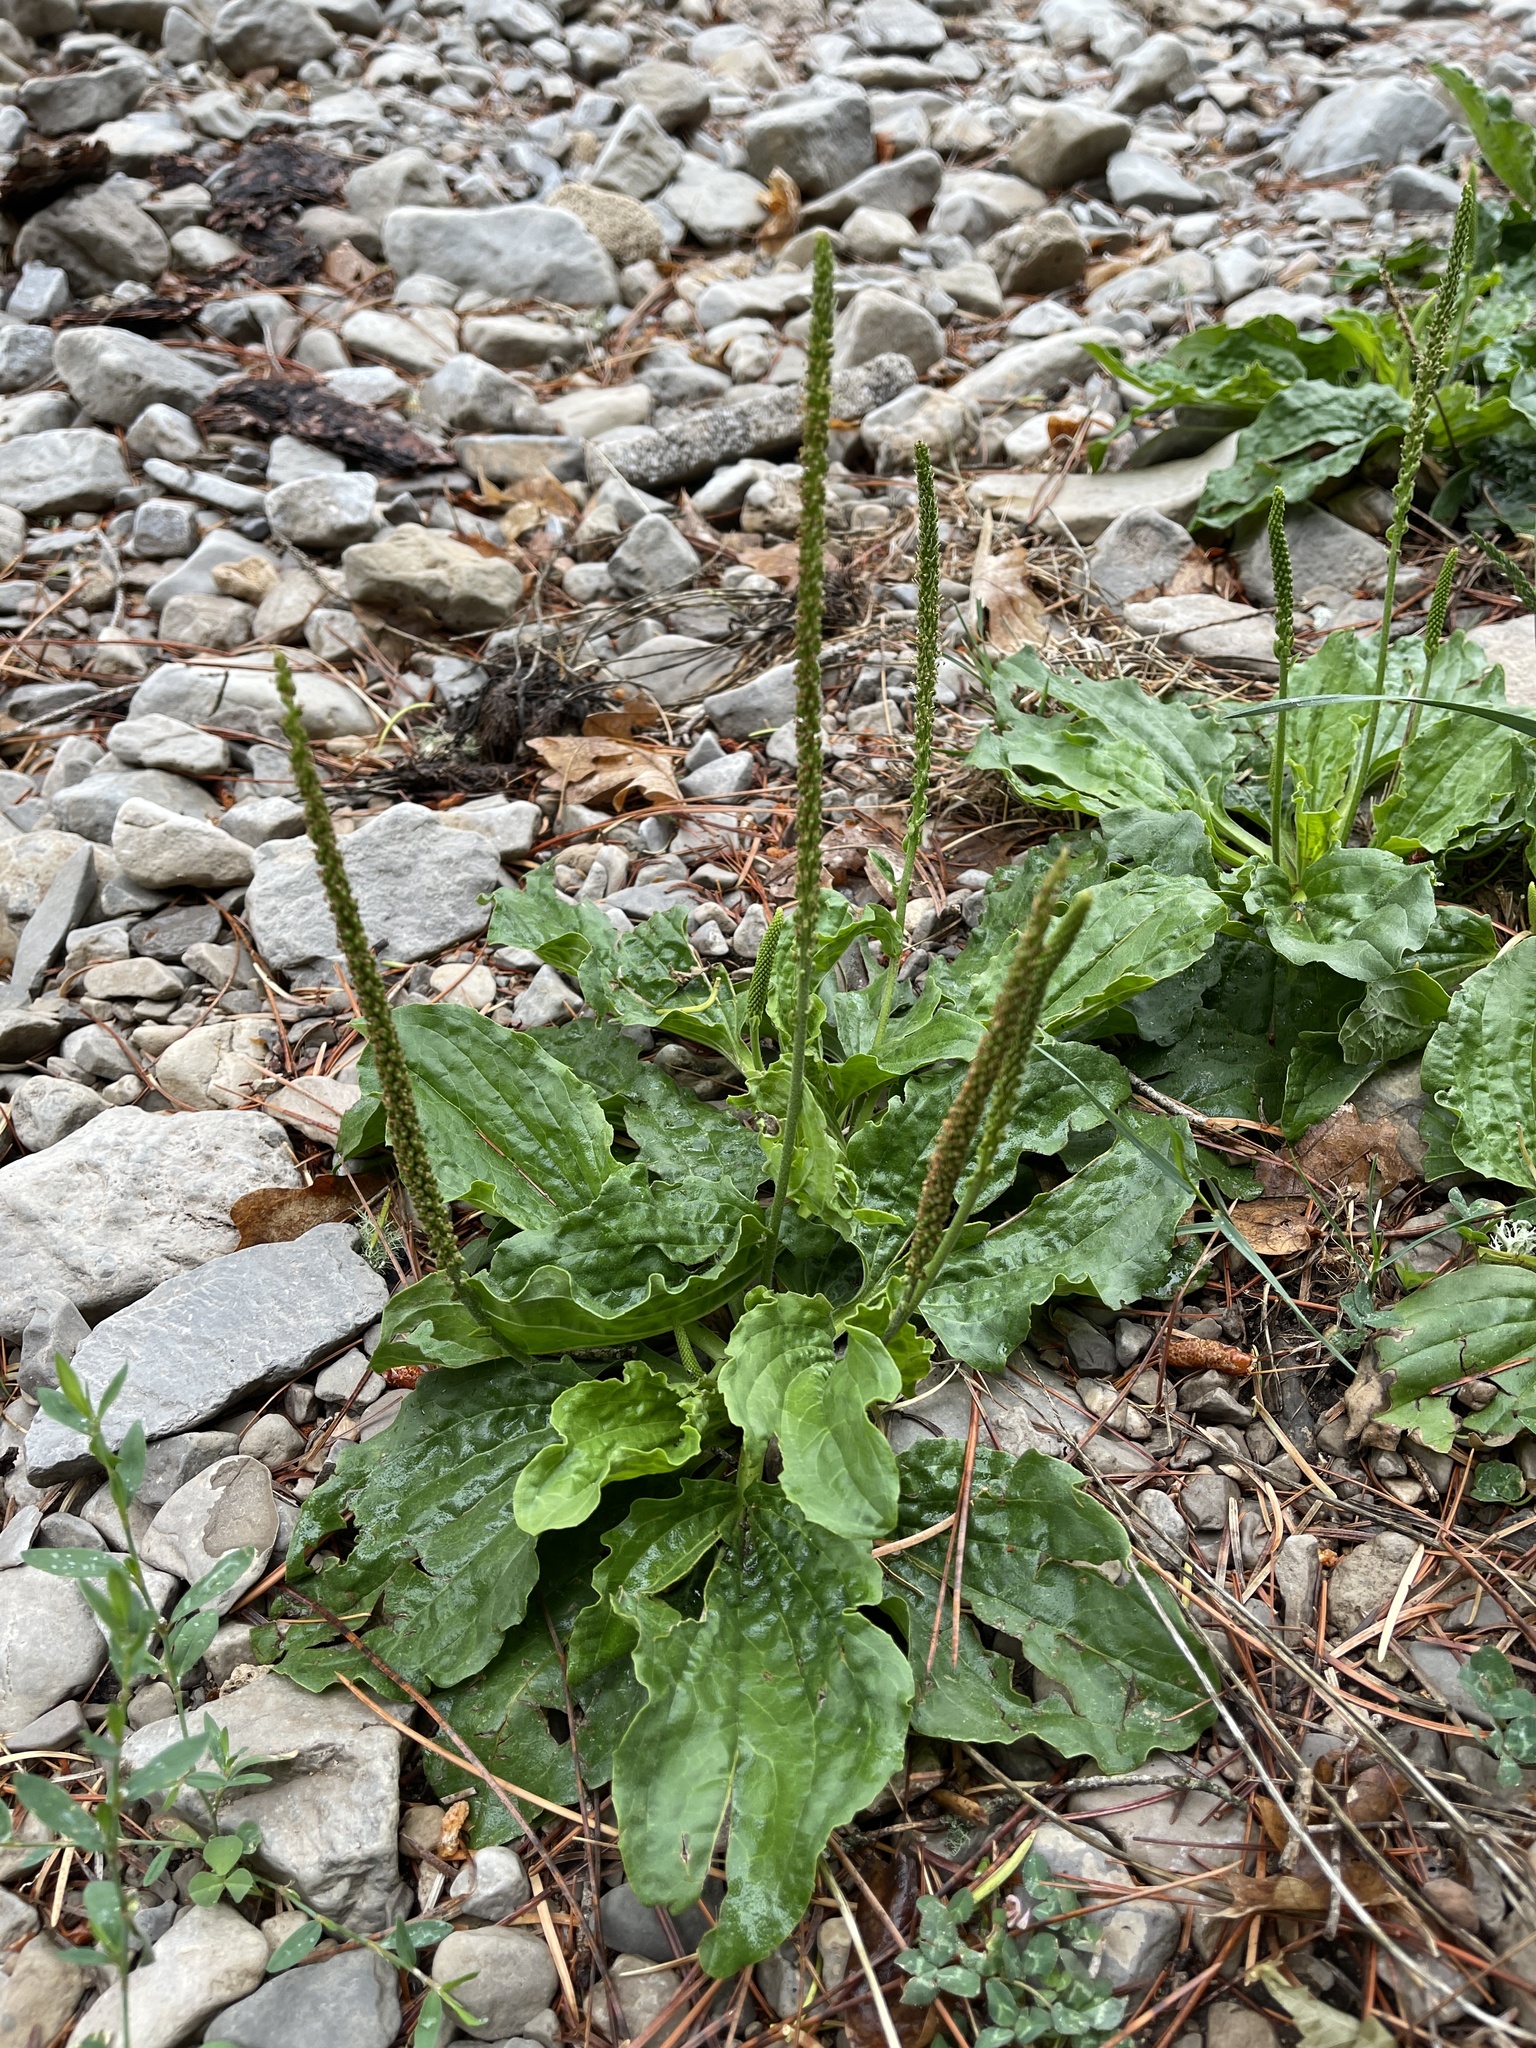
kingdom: Plantae
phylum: Tracheophyta
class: Magnoliopsida
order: Lamiales
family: Plantaginaceae
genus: Plantago
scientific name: Plantago major
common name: Common plantain
